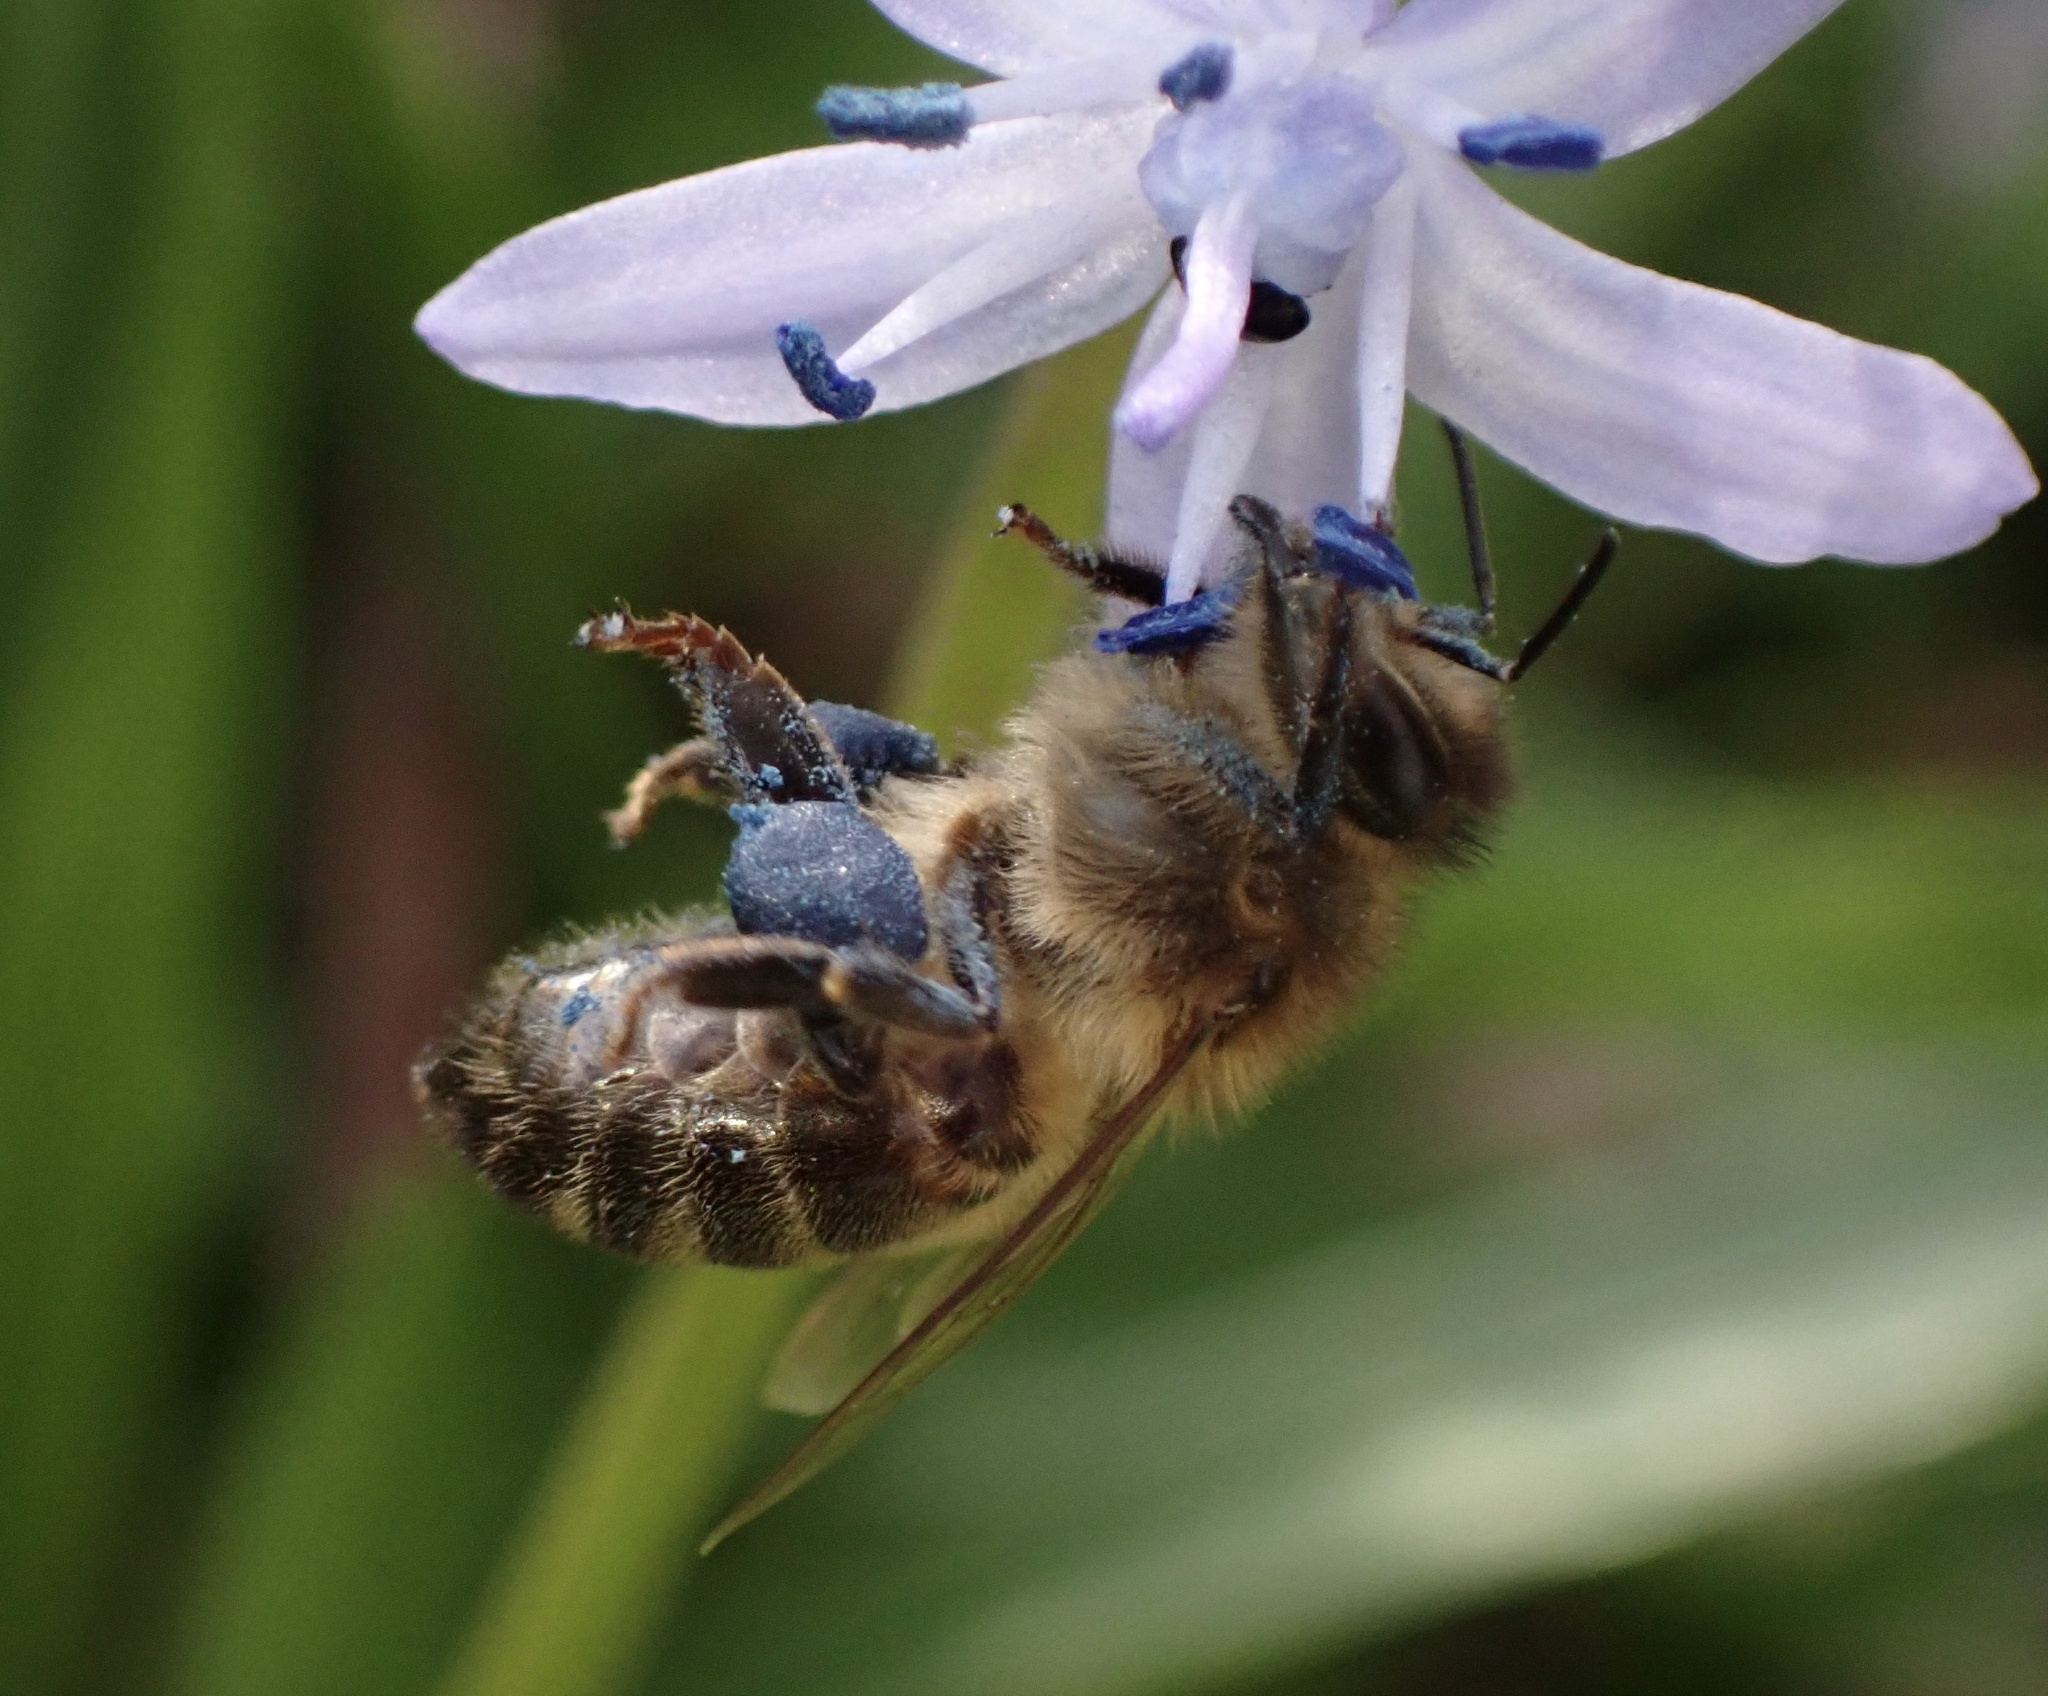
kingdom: Animalia
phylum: Arthropoda
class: Insecta
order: Hymenoptera
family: Apidae
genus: Apis
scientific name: Apis mellifera
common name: Honey bee
